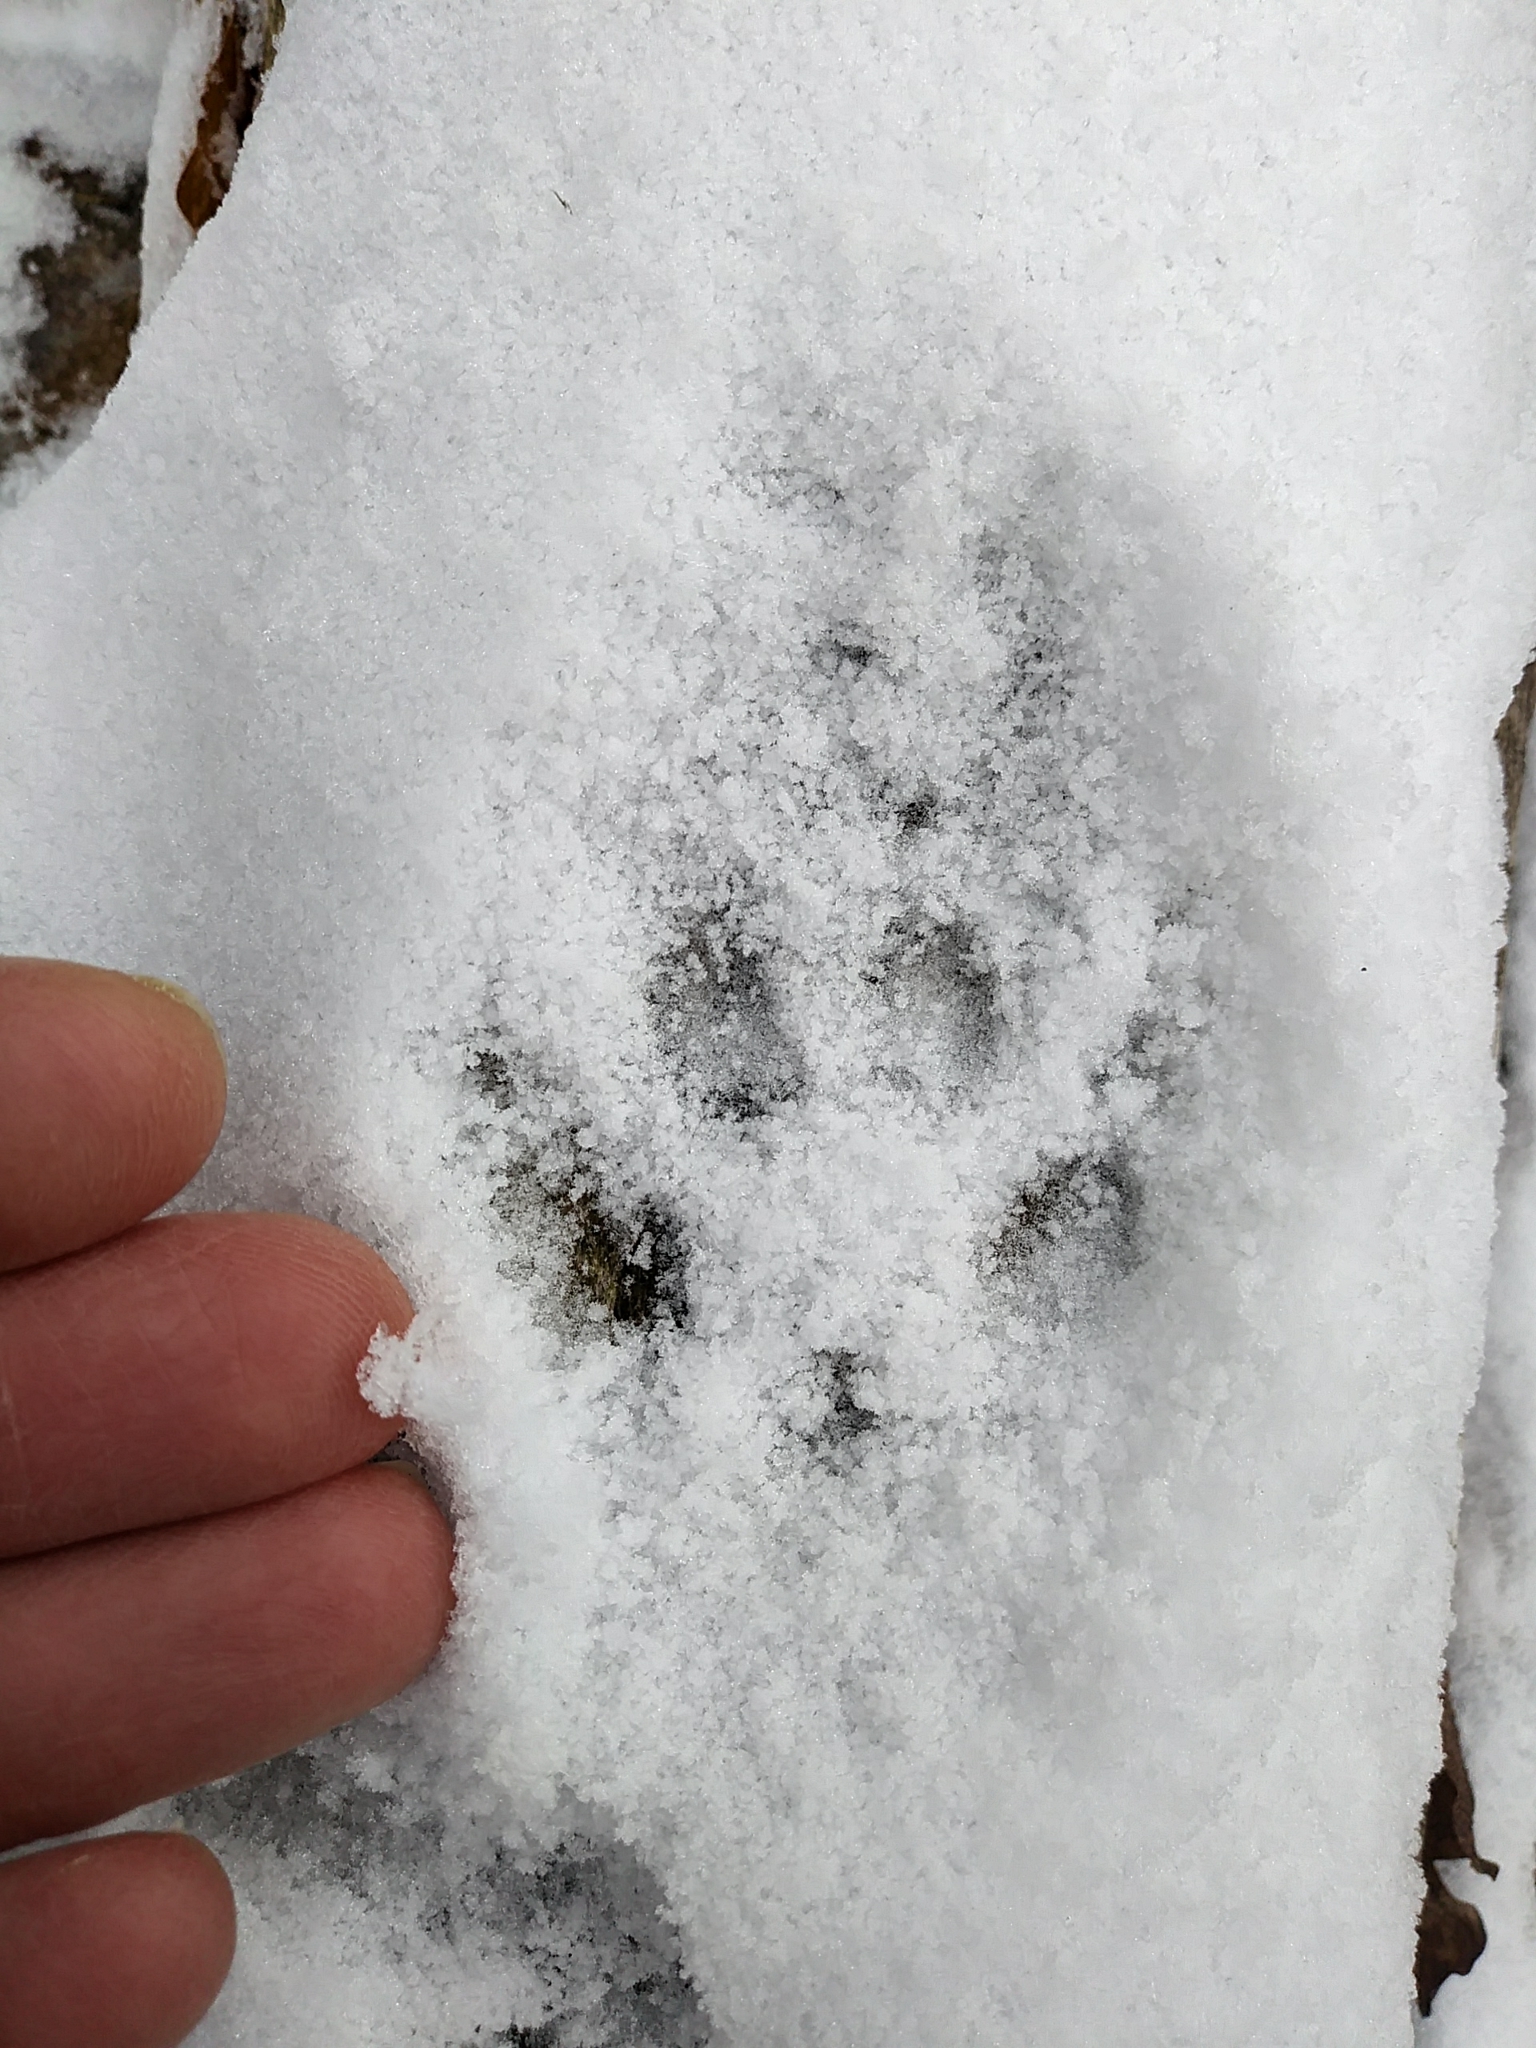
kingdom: Animalia
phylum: Chordata
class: Mammalia
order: Carnivora
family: Canidae
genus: Urocyon
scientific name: Urocyon cinereoargenteus
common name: Gray fox
